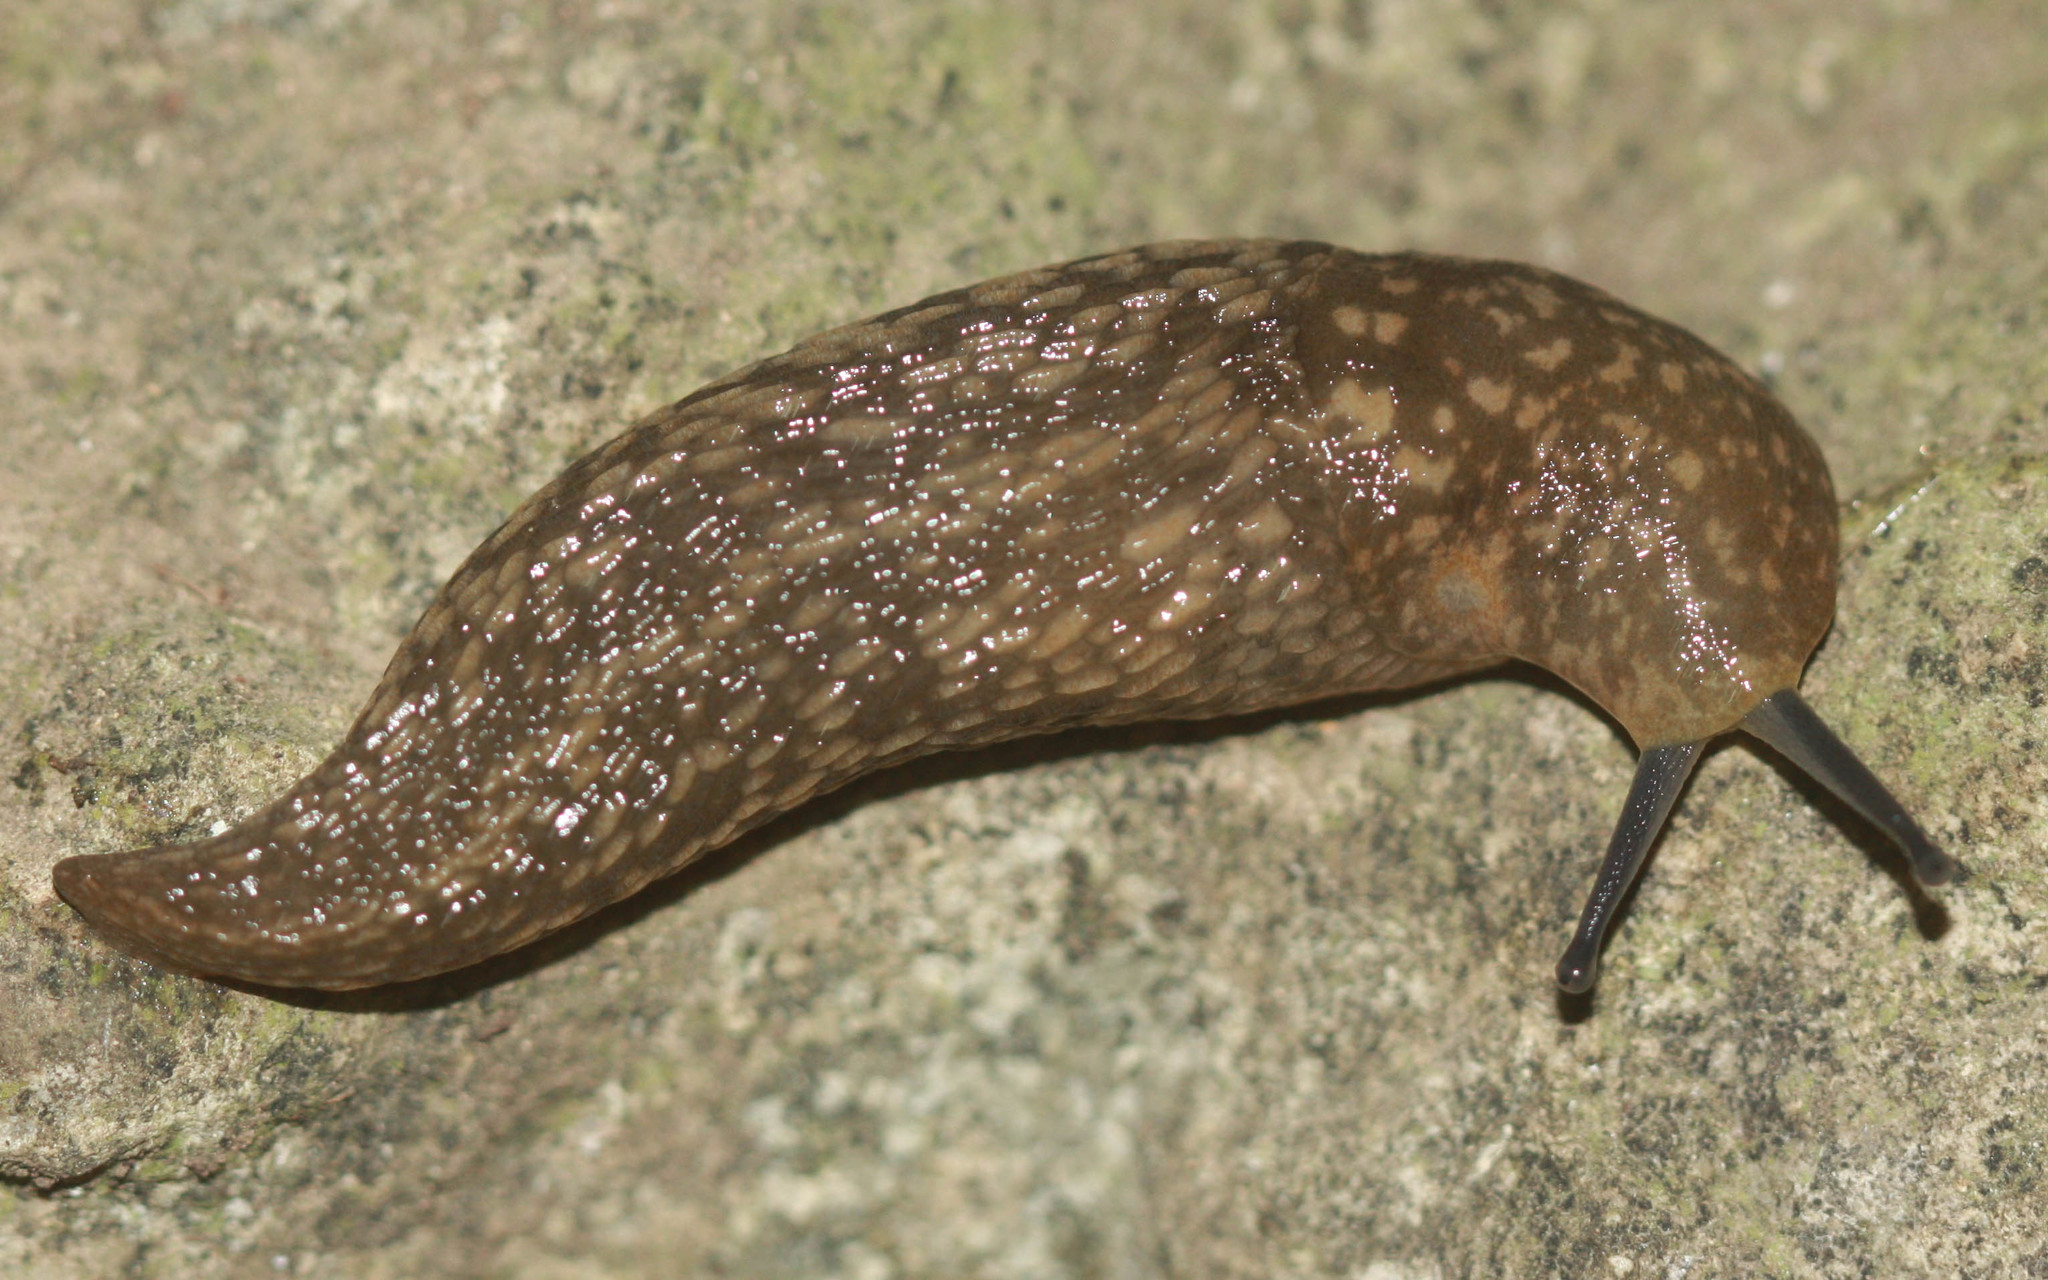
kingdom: Animalia
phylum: Mollusca
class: Gastropoda
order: Stylommatophora
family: Limacidae
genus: Limacus
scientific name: Limacus flavus
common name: Yellow gardenslug
